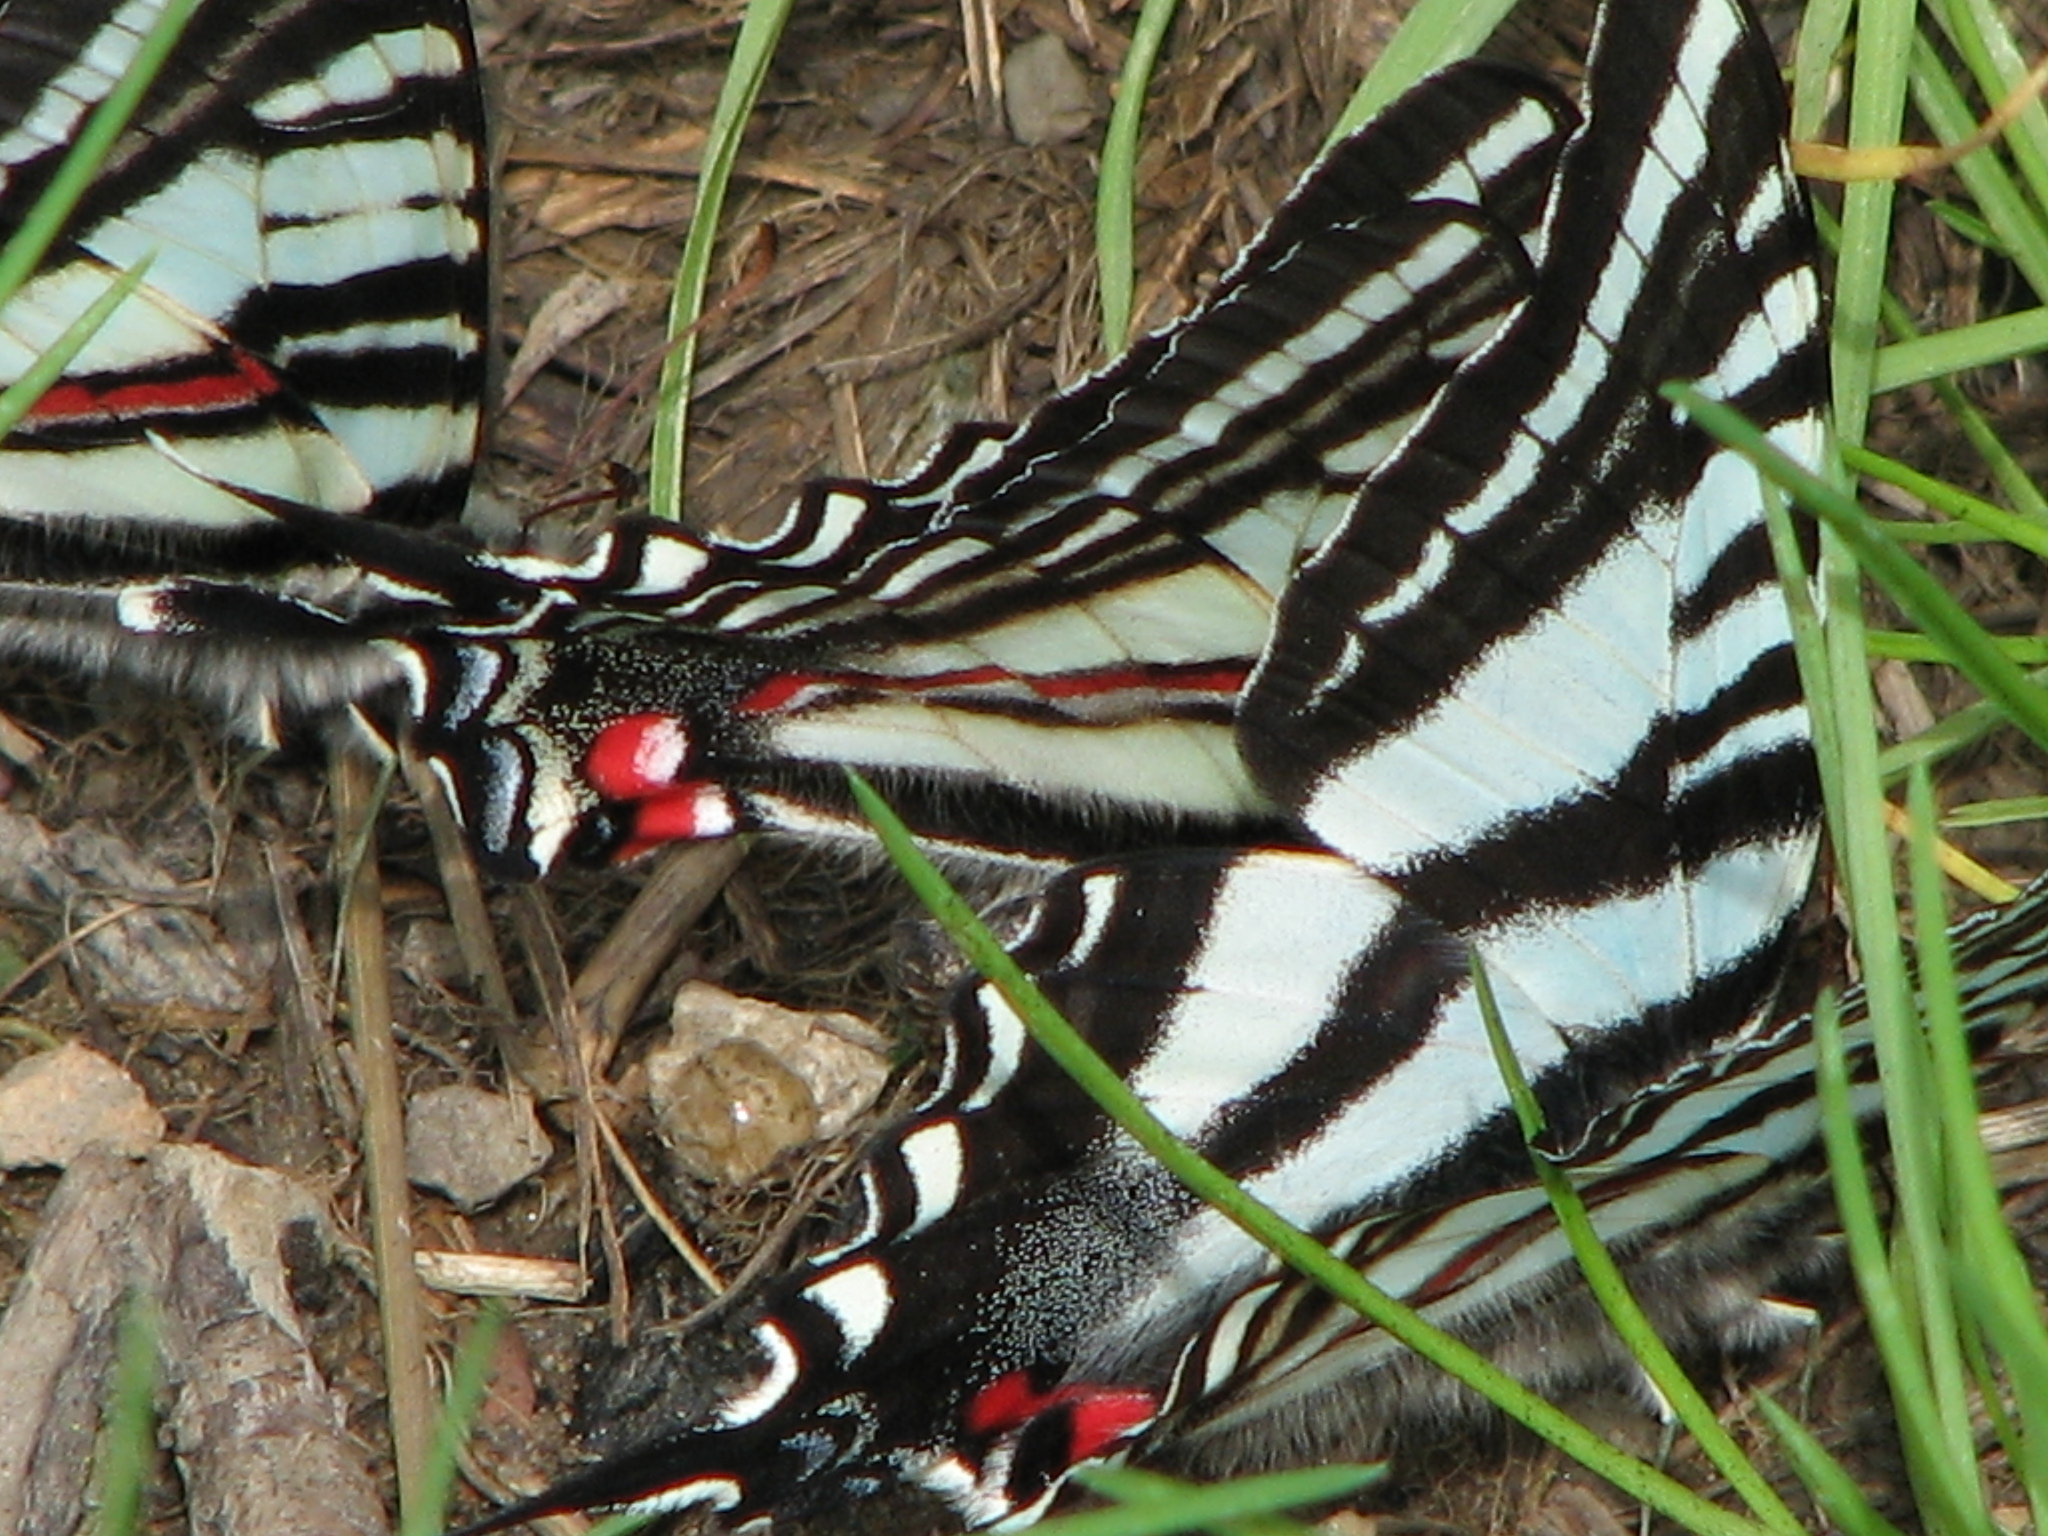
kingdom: Animalia
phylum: Arthropoda
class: Insecta
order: Lepidoptera
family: Papilionidae
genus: Protographium
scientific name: Protographium marcellus
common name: Zebra swallowtail
